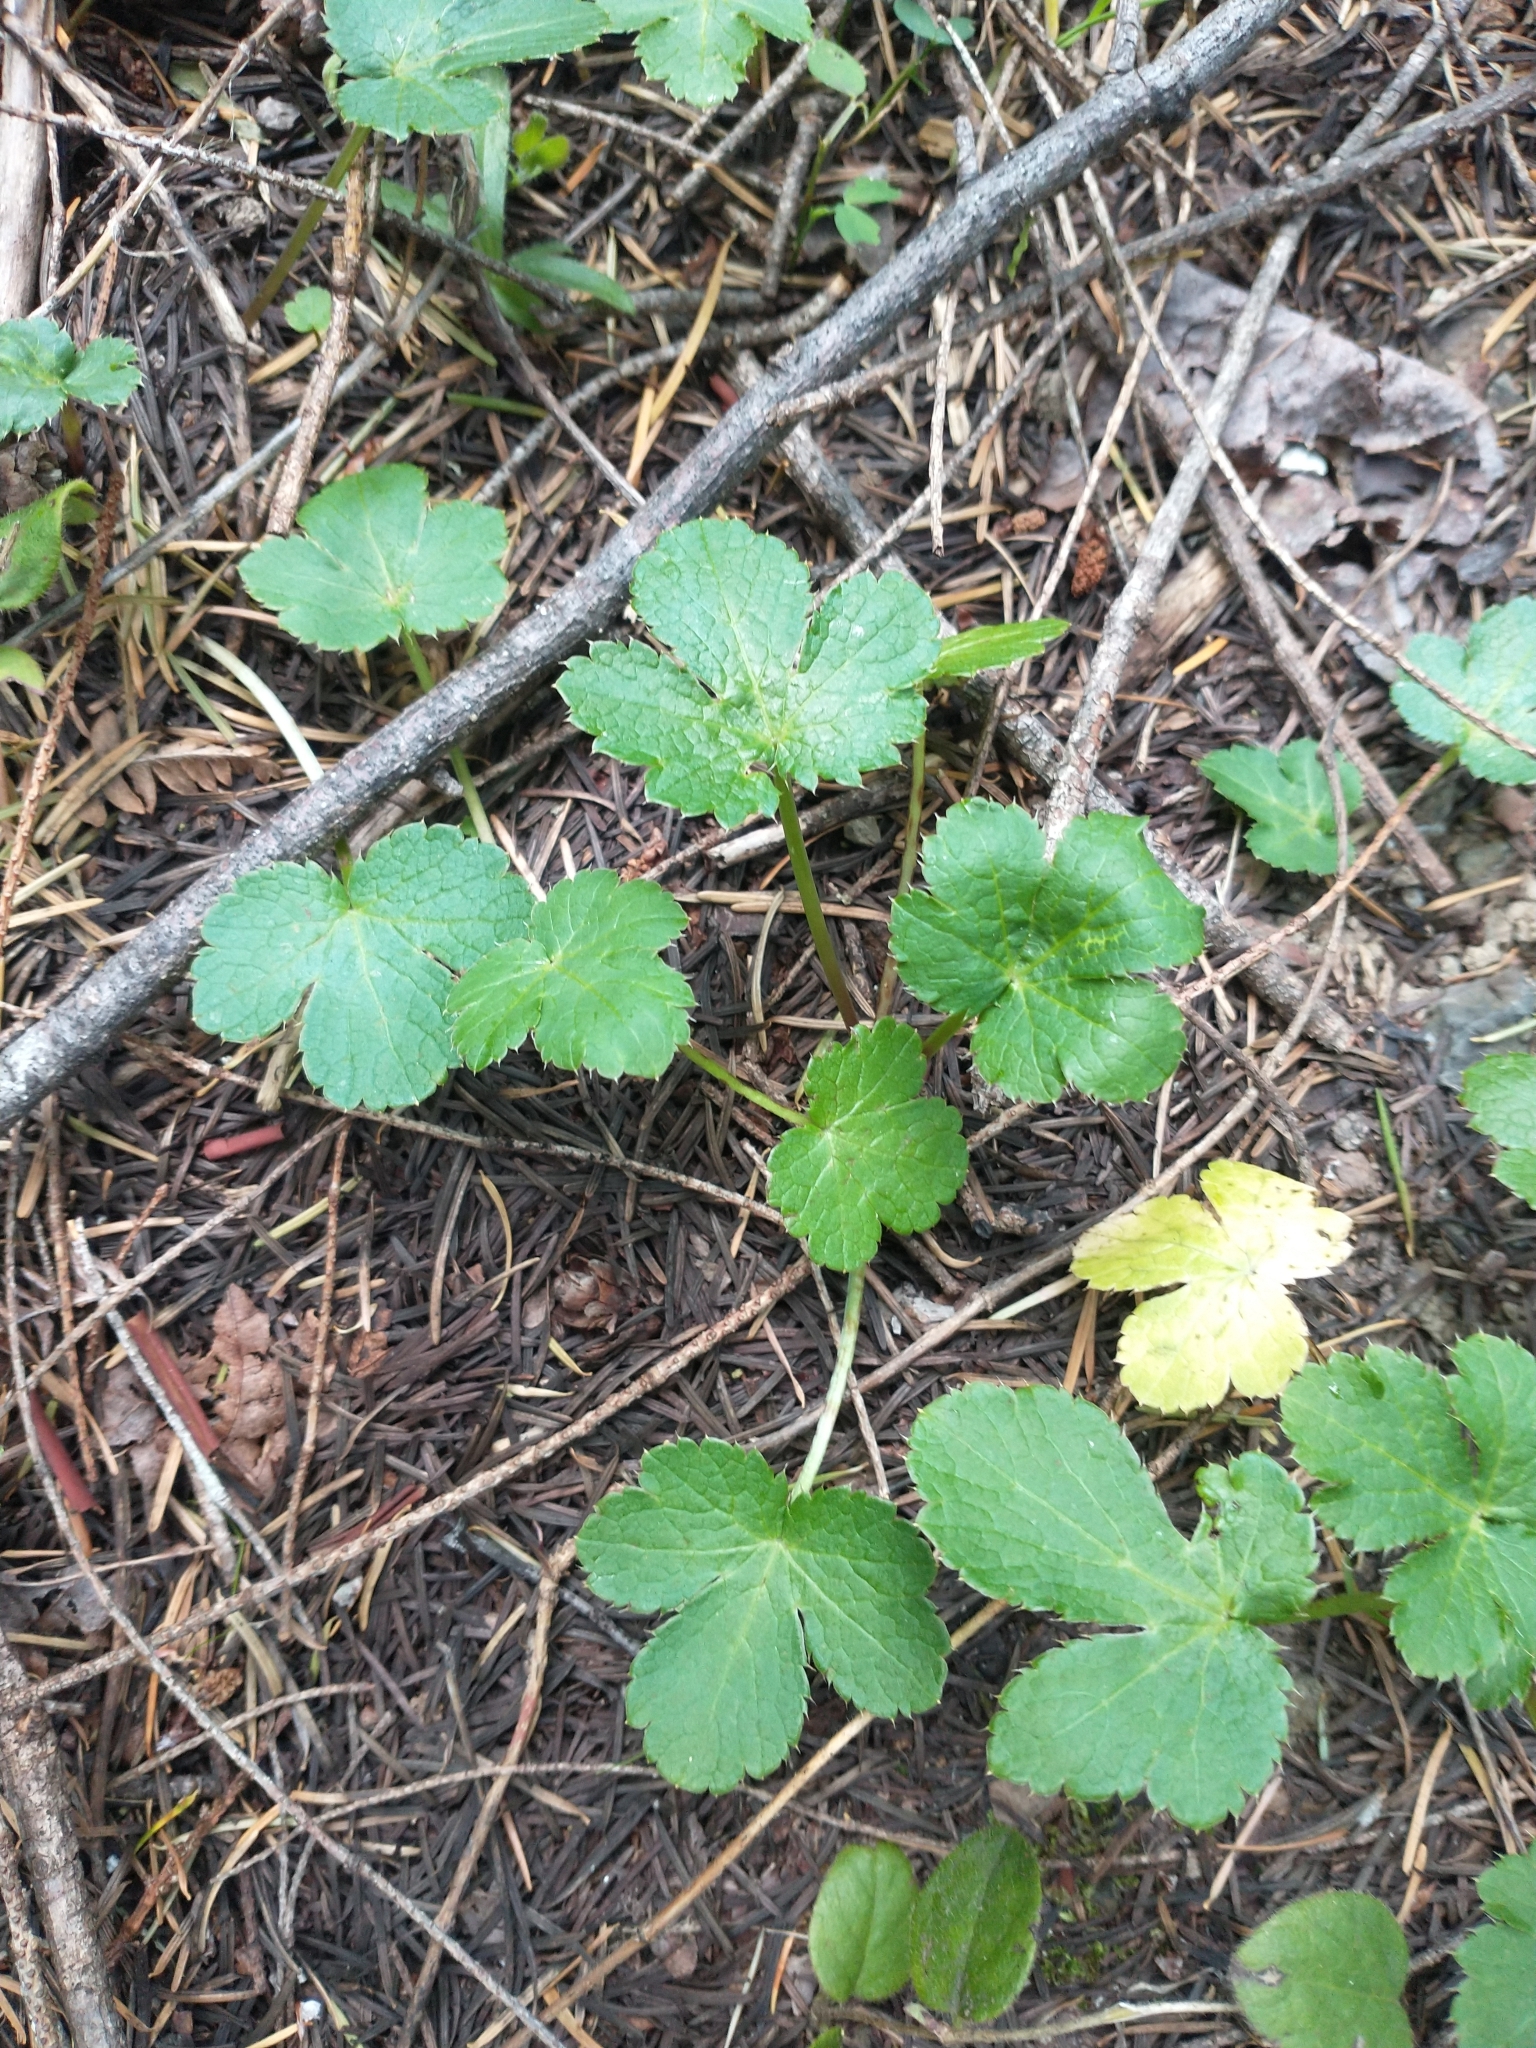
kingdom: Plantae
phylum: Tracheophyta
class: Magnoliopsida
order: Apiales
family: Apiaceae
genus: Sanicula
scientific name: Sanicula crassicaulis
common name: Western snakeroot
